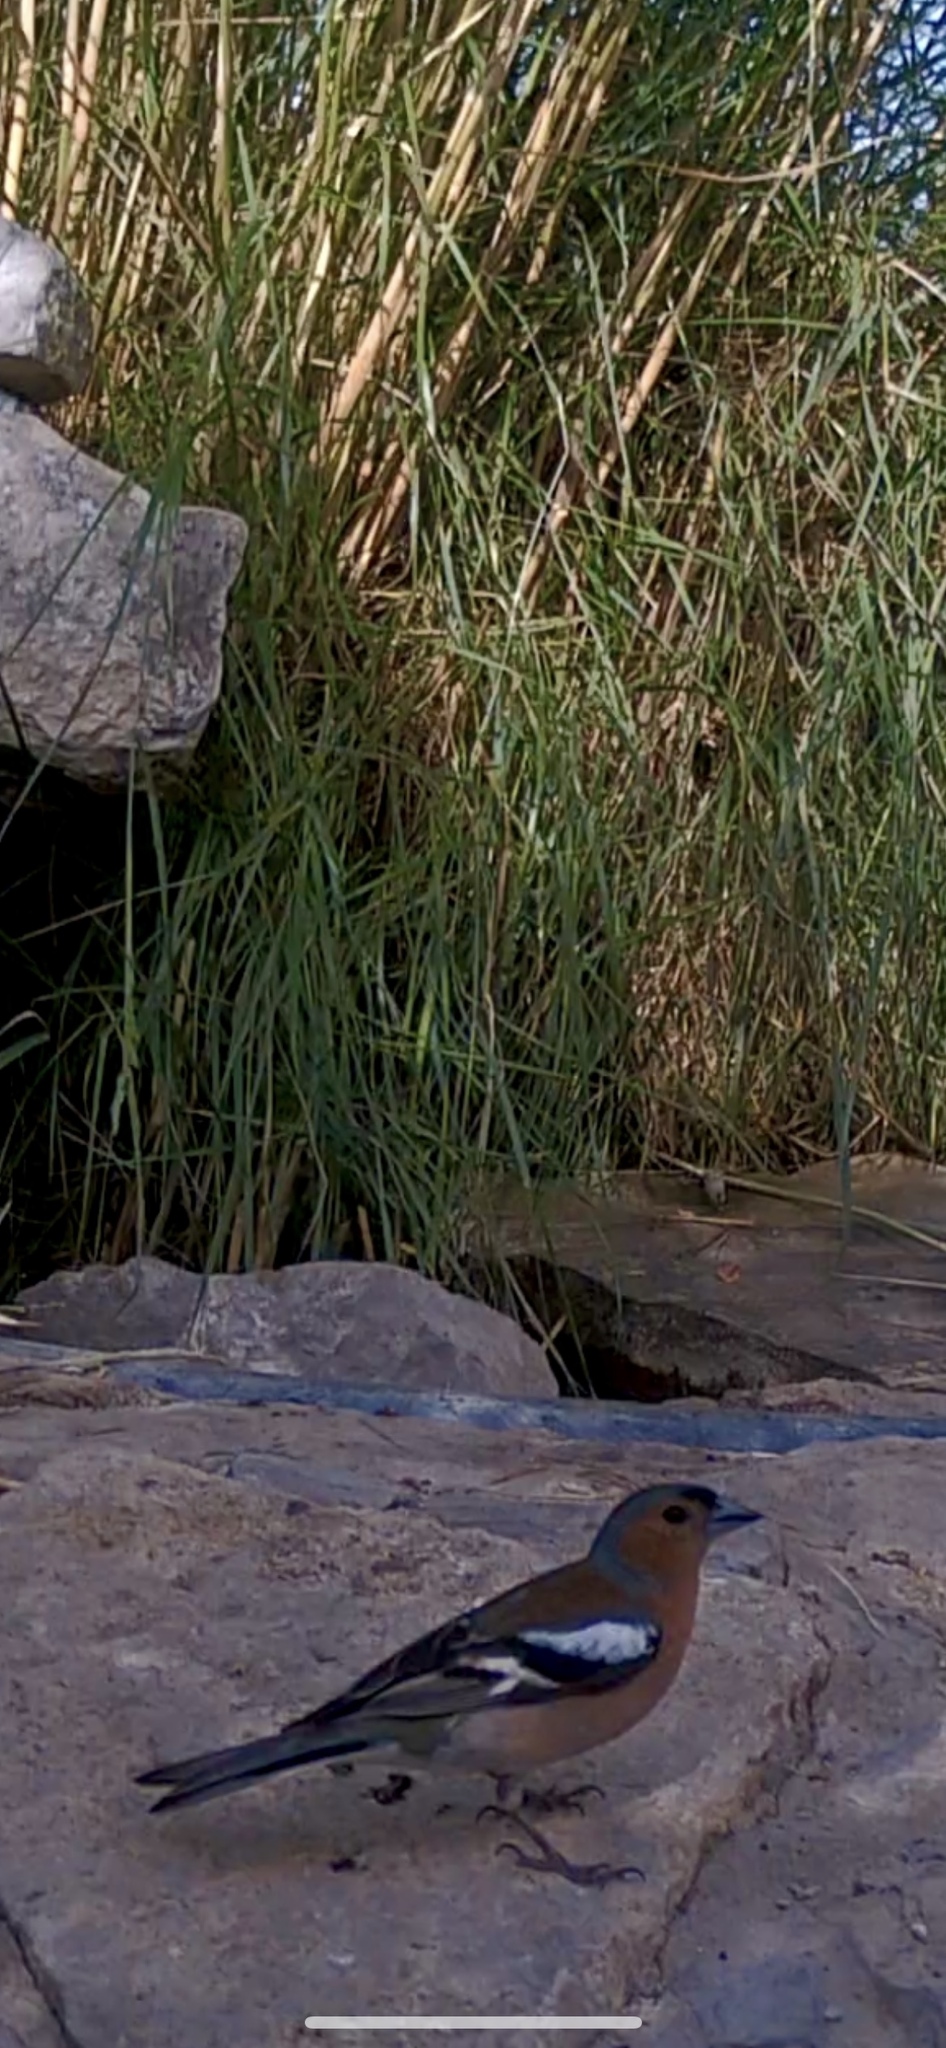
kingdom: Animalia
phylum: Chordata
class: Aves
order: Passeriformes
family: Fringillidae
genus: Fringilla
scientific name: Fringilla coelebs
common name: Common chaffinch
